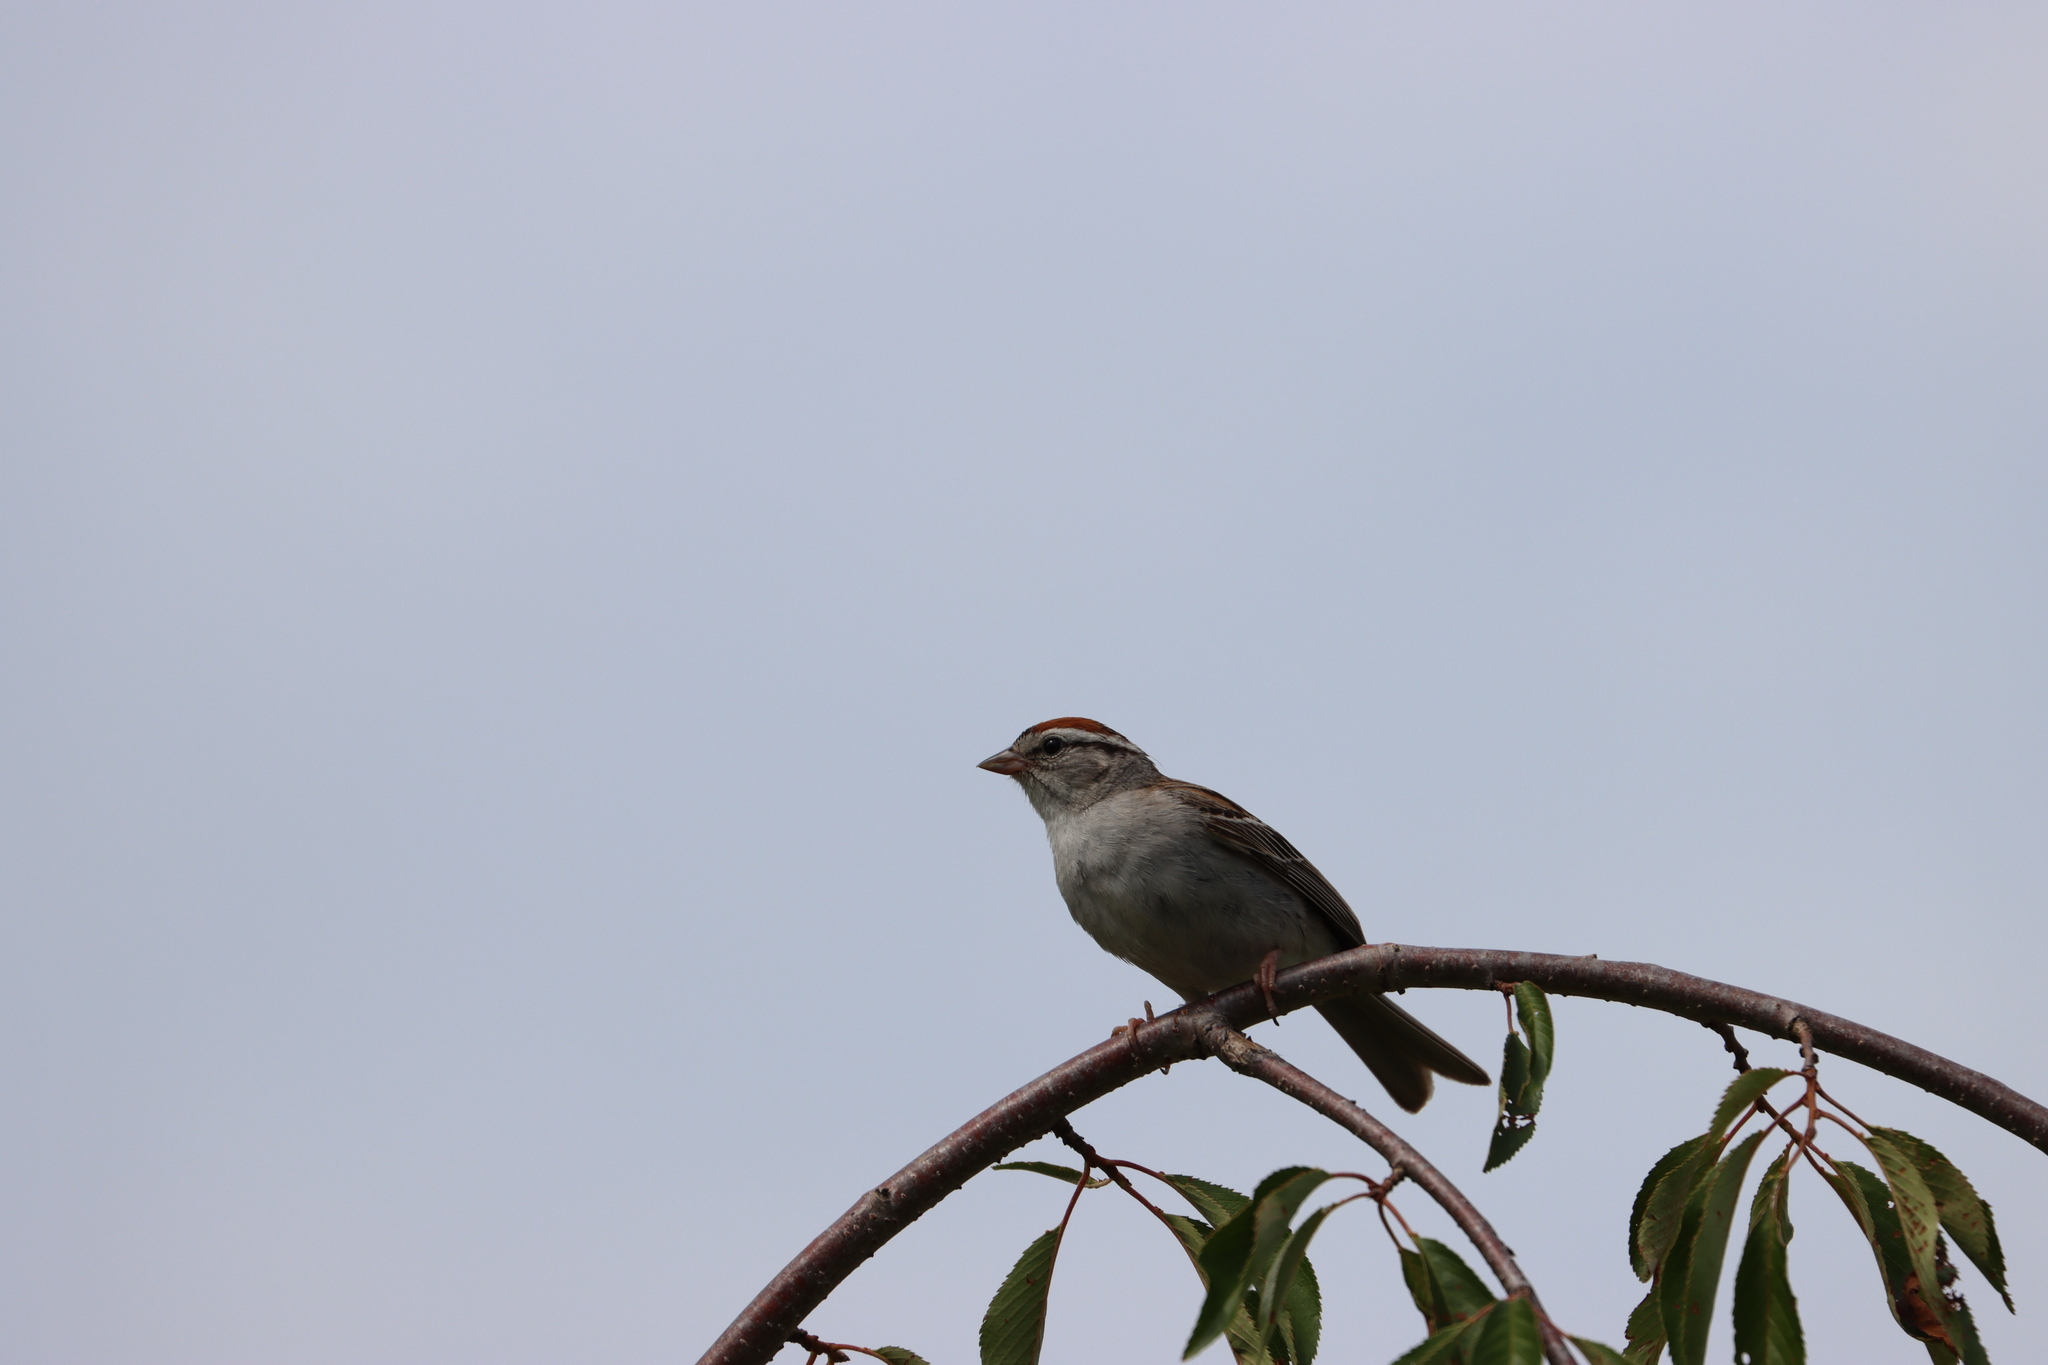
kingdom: Animalia
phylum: Chordata
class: Aves
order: Passeriformes
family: Passerellidae
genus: Spizella
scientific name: Spizella passerina
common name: Chipping sparrow
